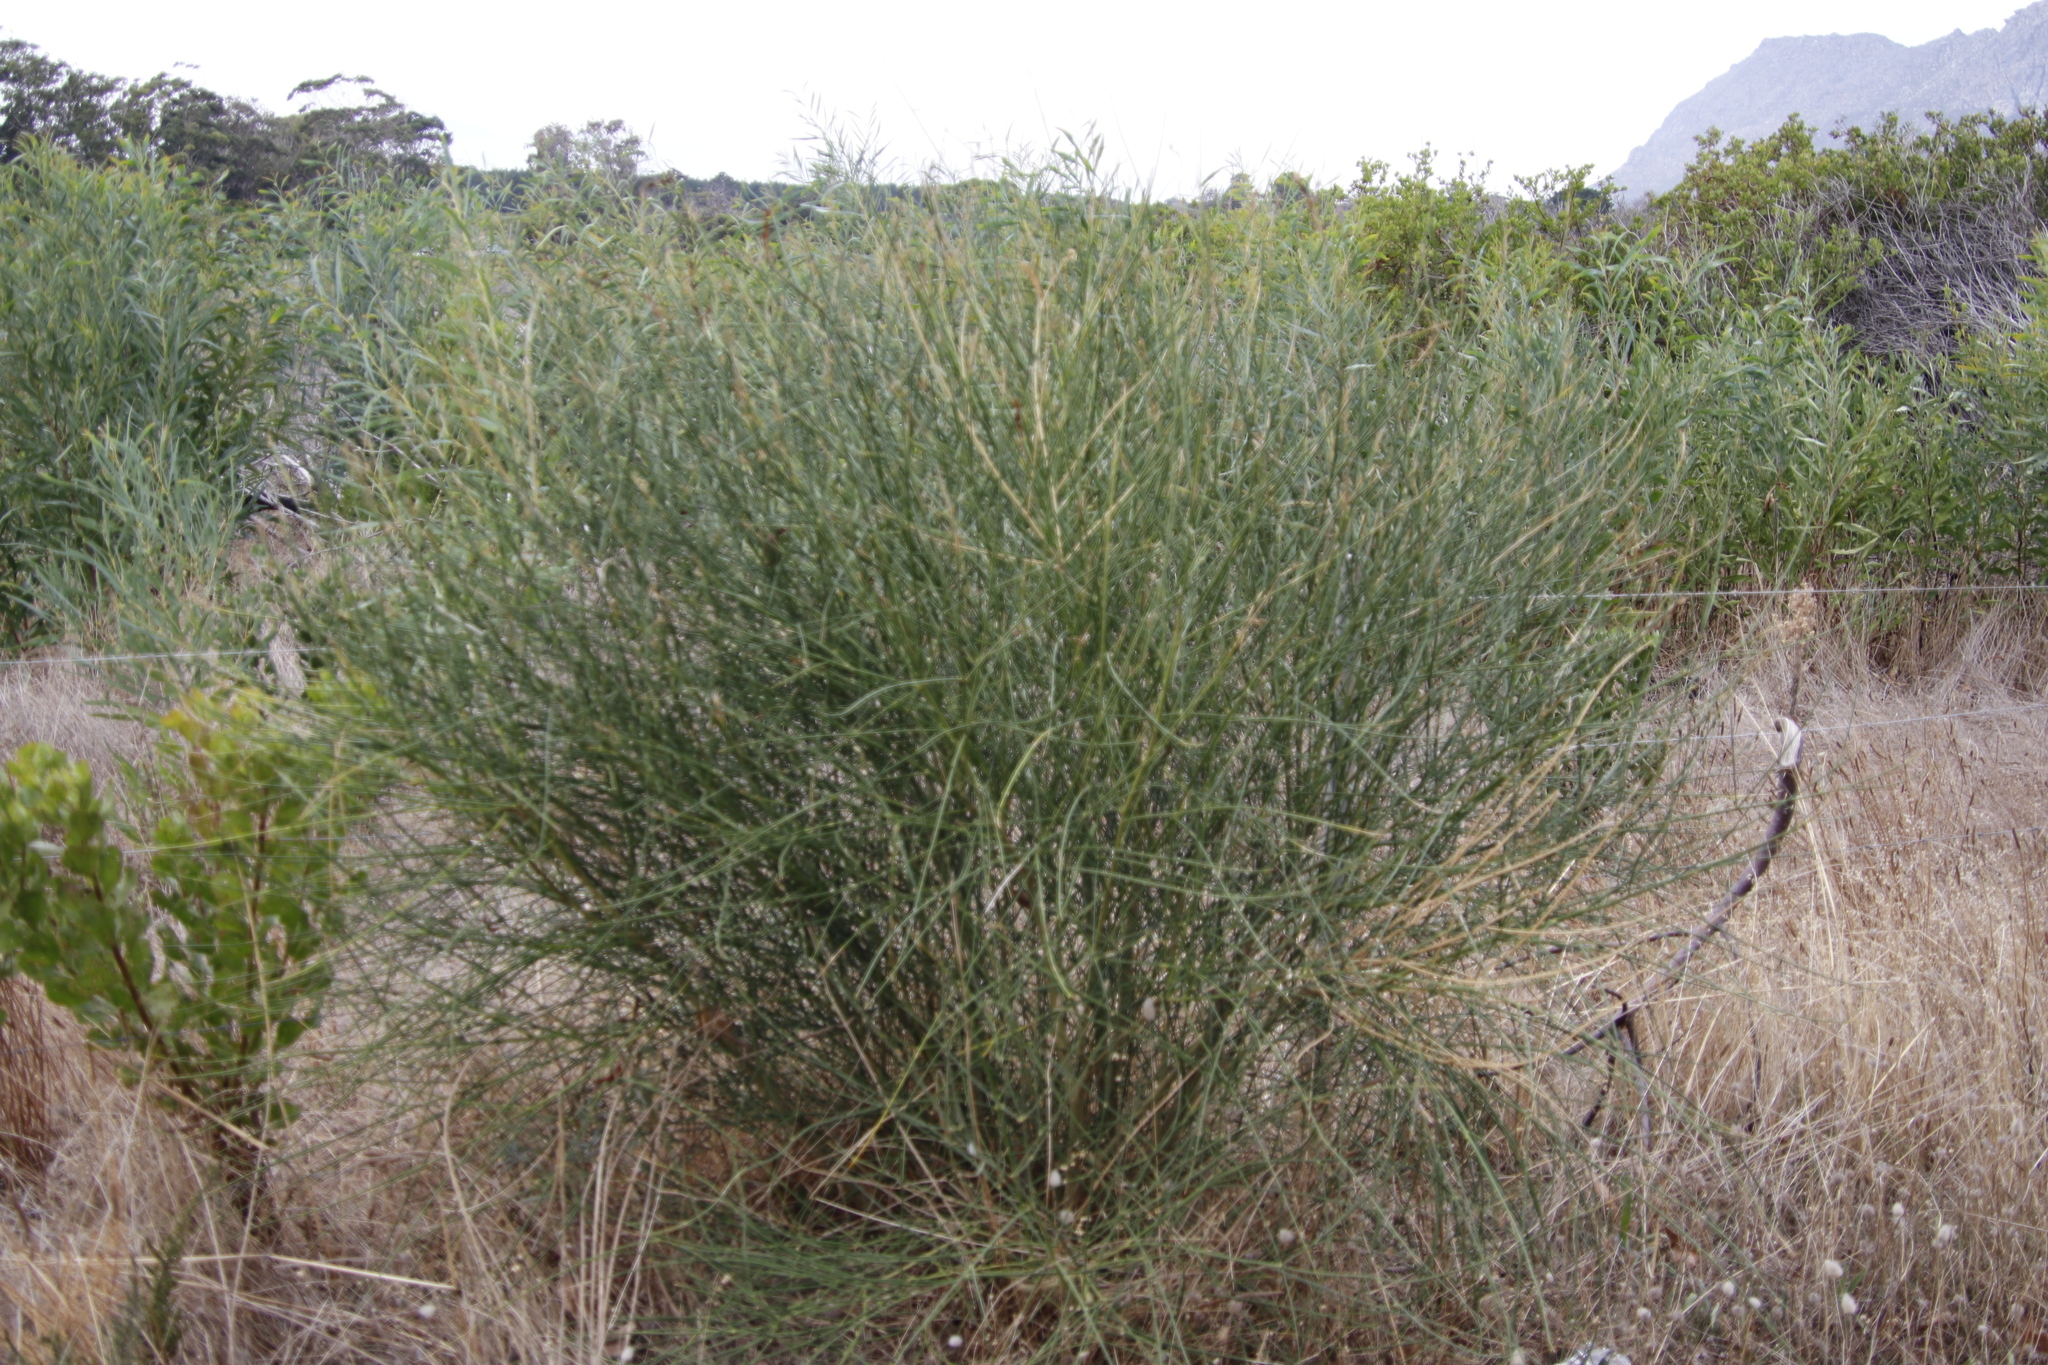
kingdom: Plantae
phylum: Tracheophyta
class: Magnoliopsida
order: Fabales
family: Fabaceae
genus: Spartium
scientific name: Spartium junceum
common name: Spanish broom
